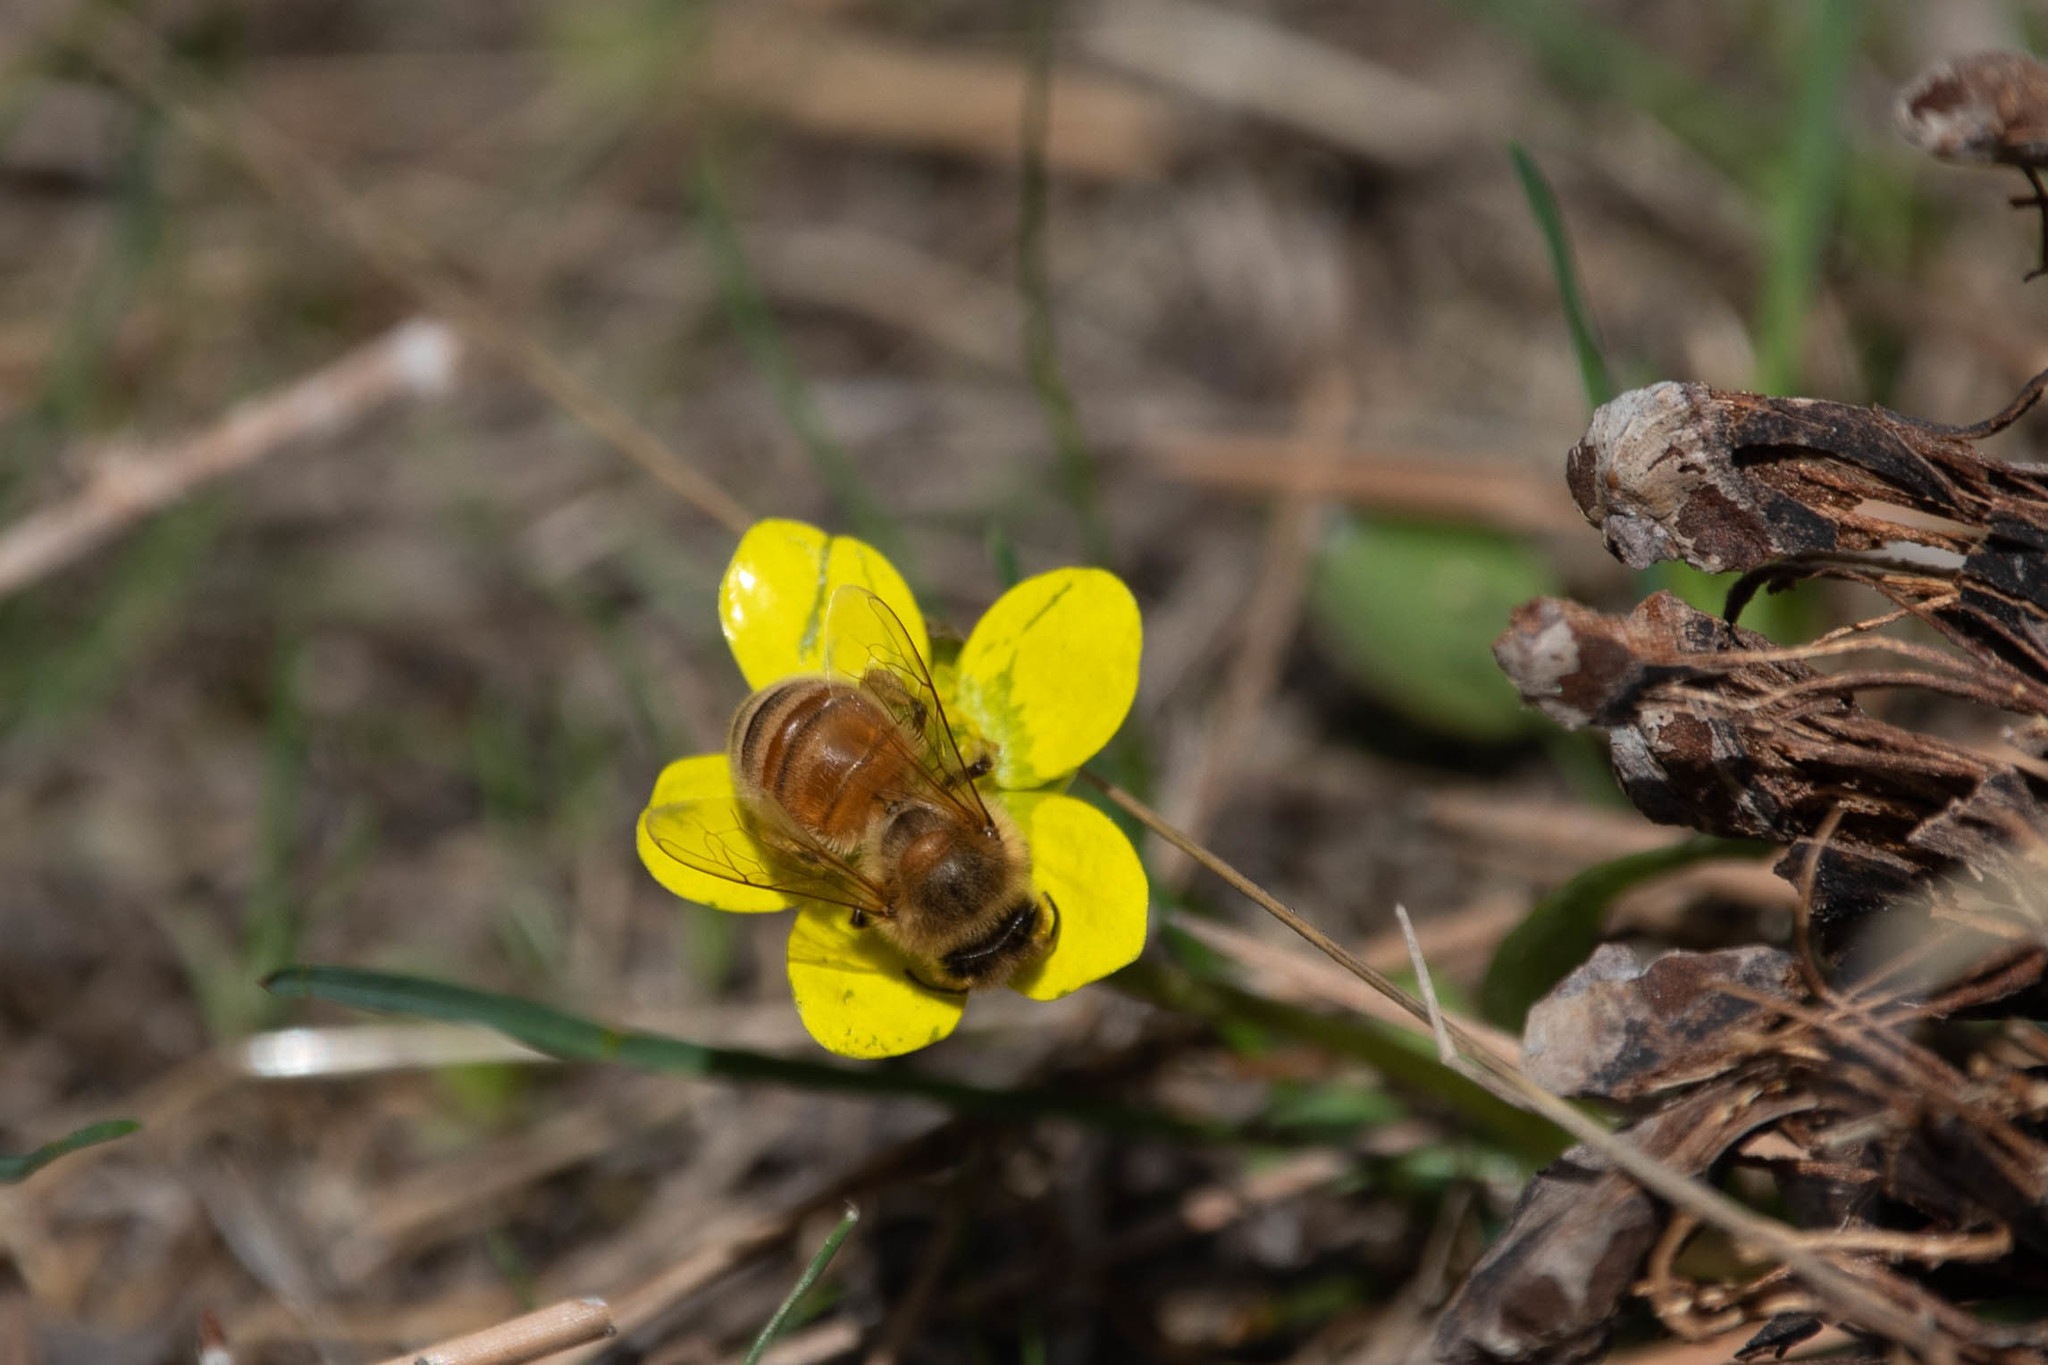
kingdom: Animalia
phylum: Arthropoda
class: Insecta
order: Hymenoptera
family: Apidae
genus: Apis
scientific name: Apis mellifera
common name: Honey bee
